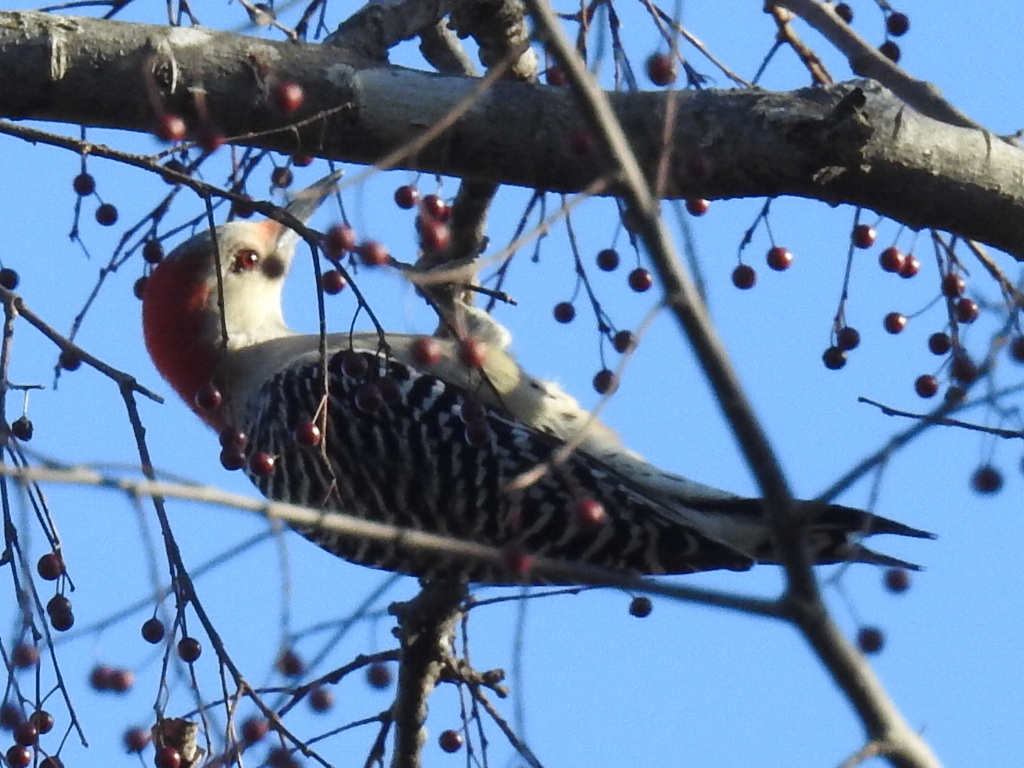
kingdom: Animalia
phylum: Chordata
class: Aves
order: Piciformes
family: Picidae
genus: Melanerpes
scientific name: Melanerpes carolinus
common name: Red-bellied woodpecker
